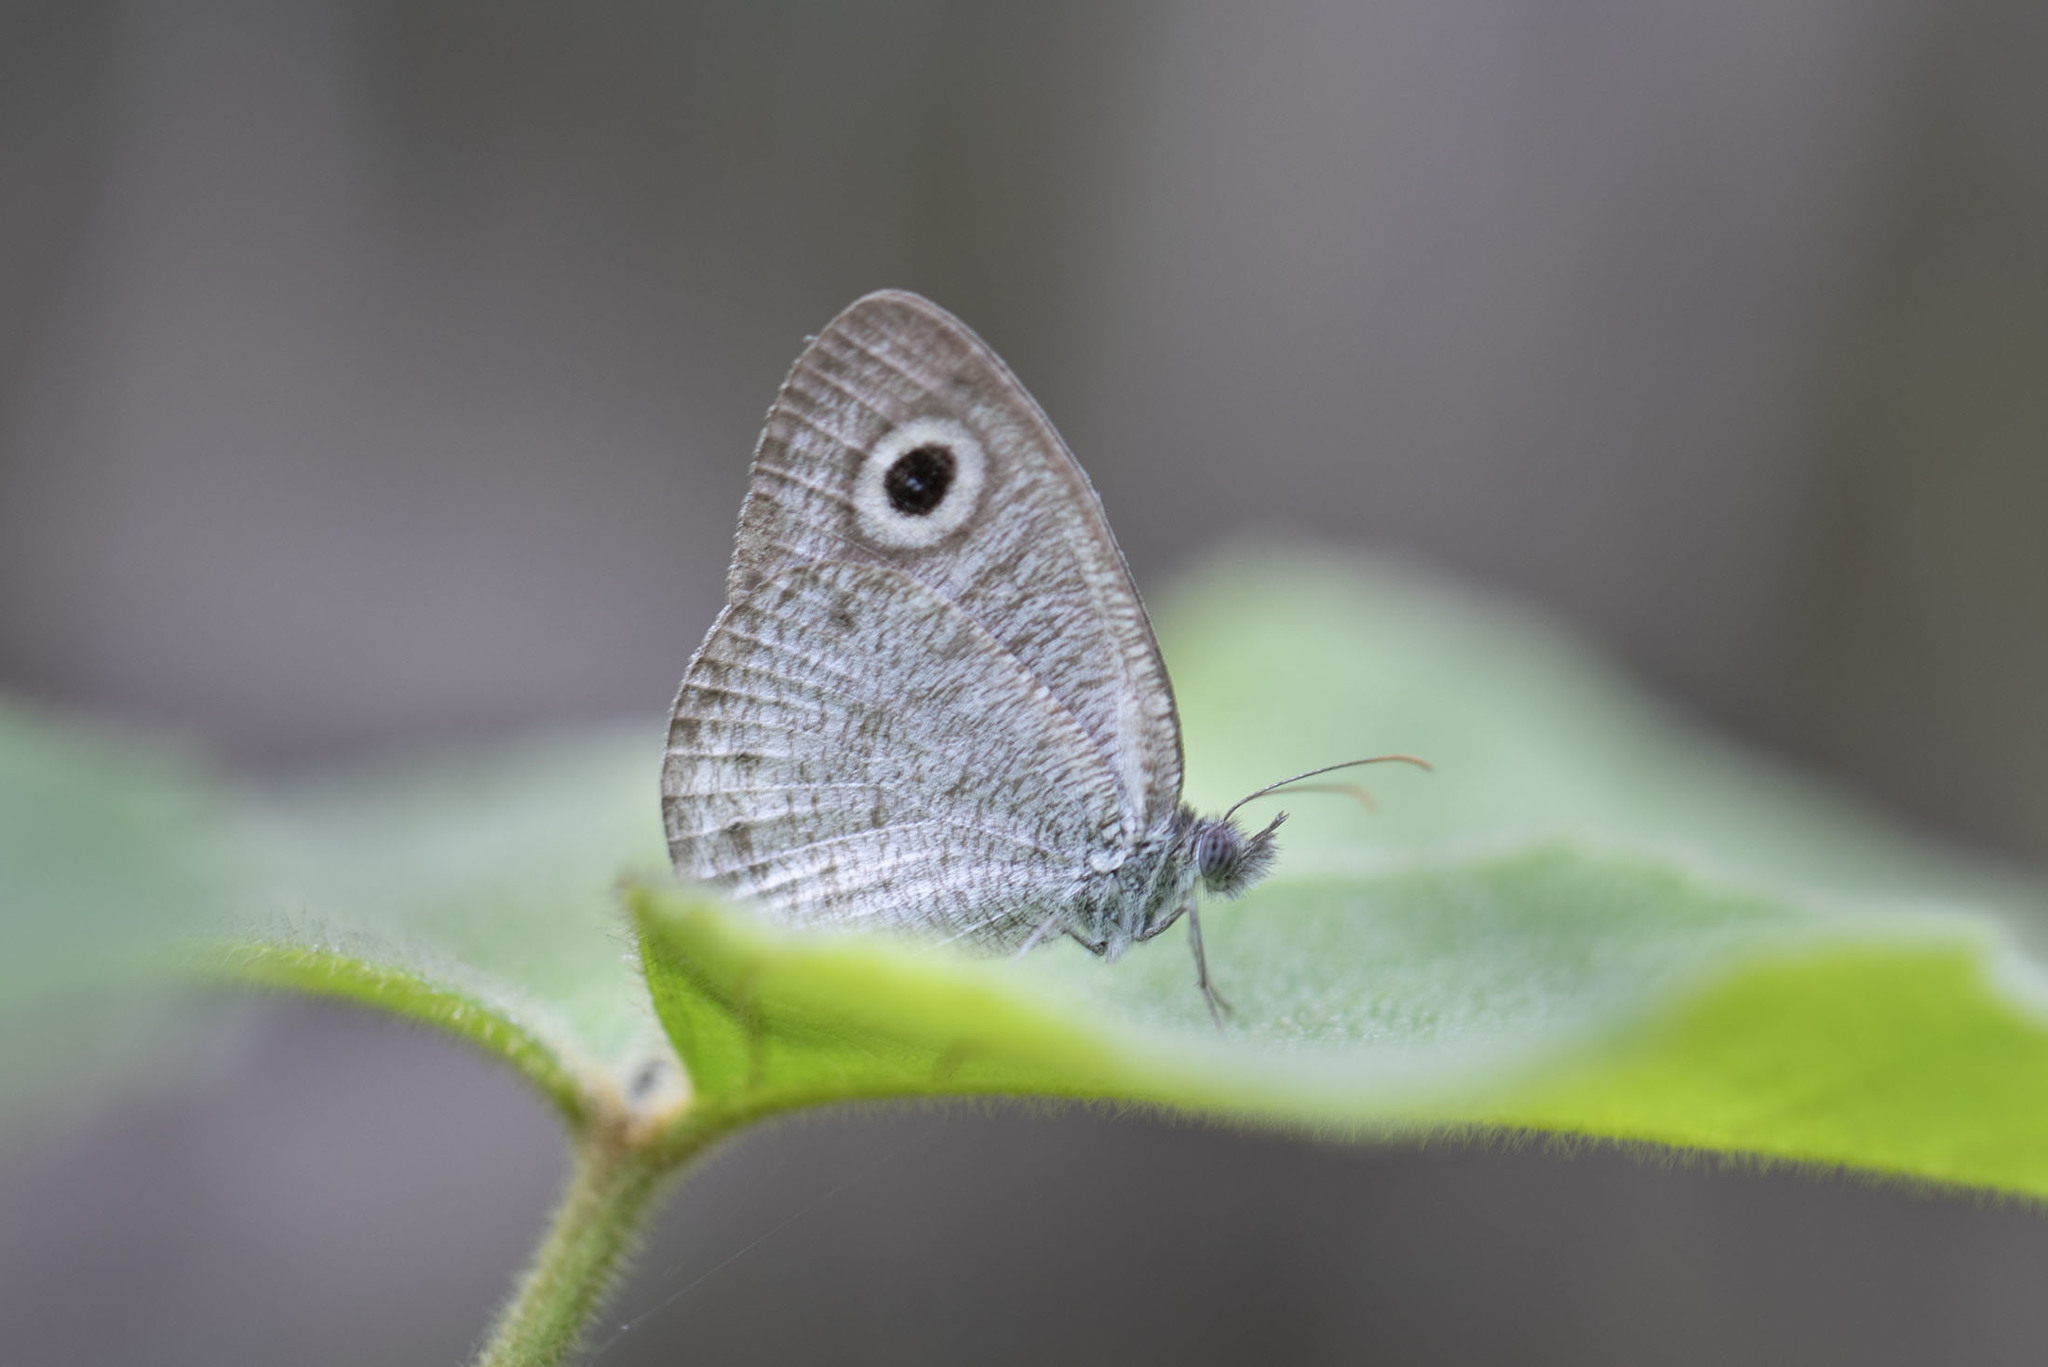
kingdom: Animalia
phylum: Arthropoda
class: Insecta
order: Lepidoptera
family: Nymphalidae
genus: Ypthima
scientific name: Ypthima huebneri
